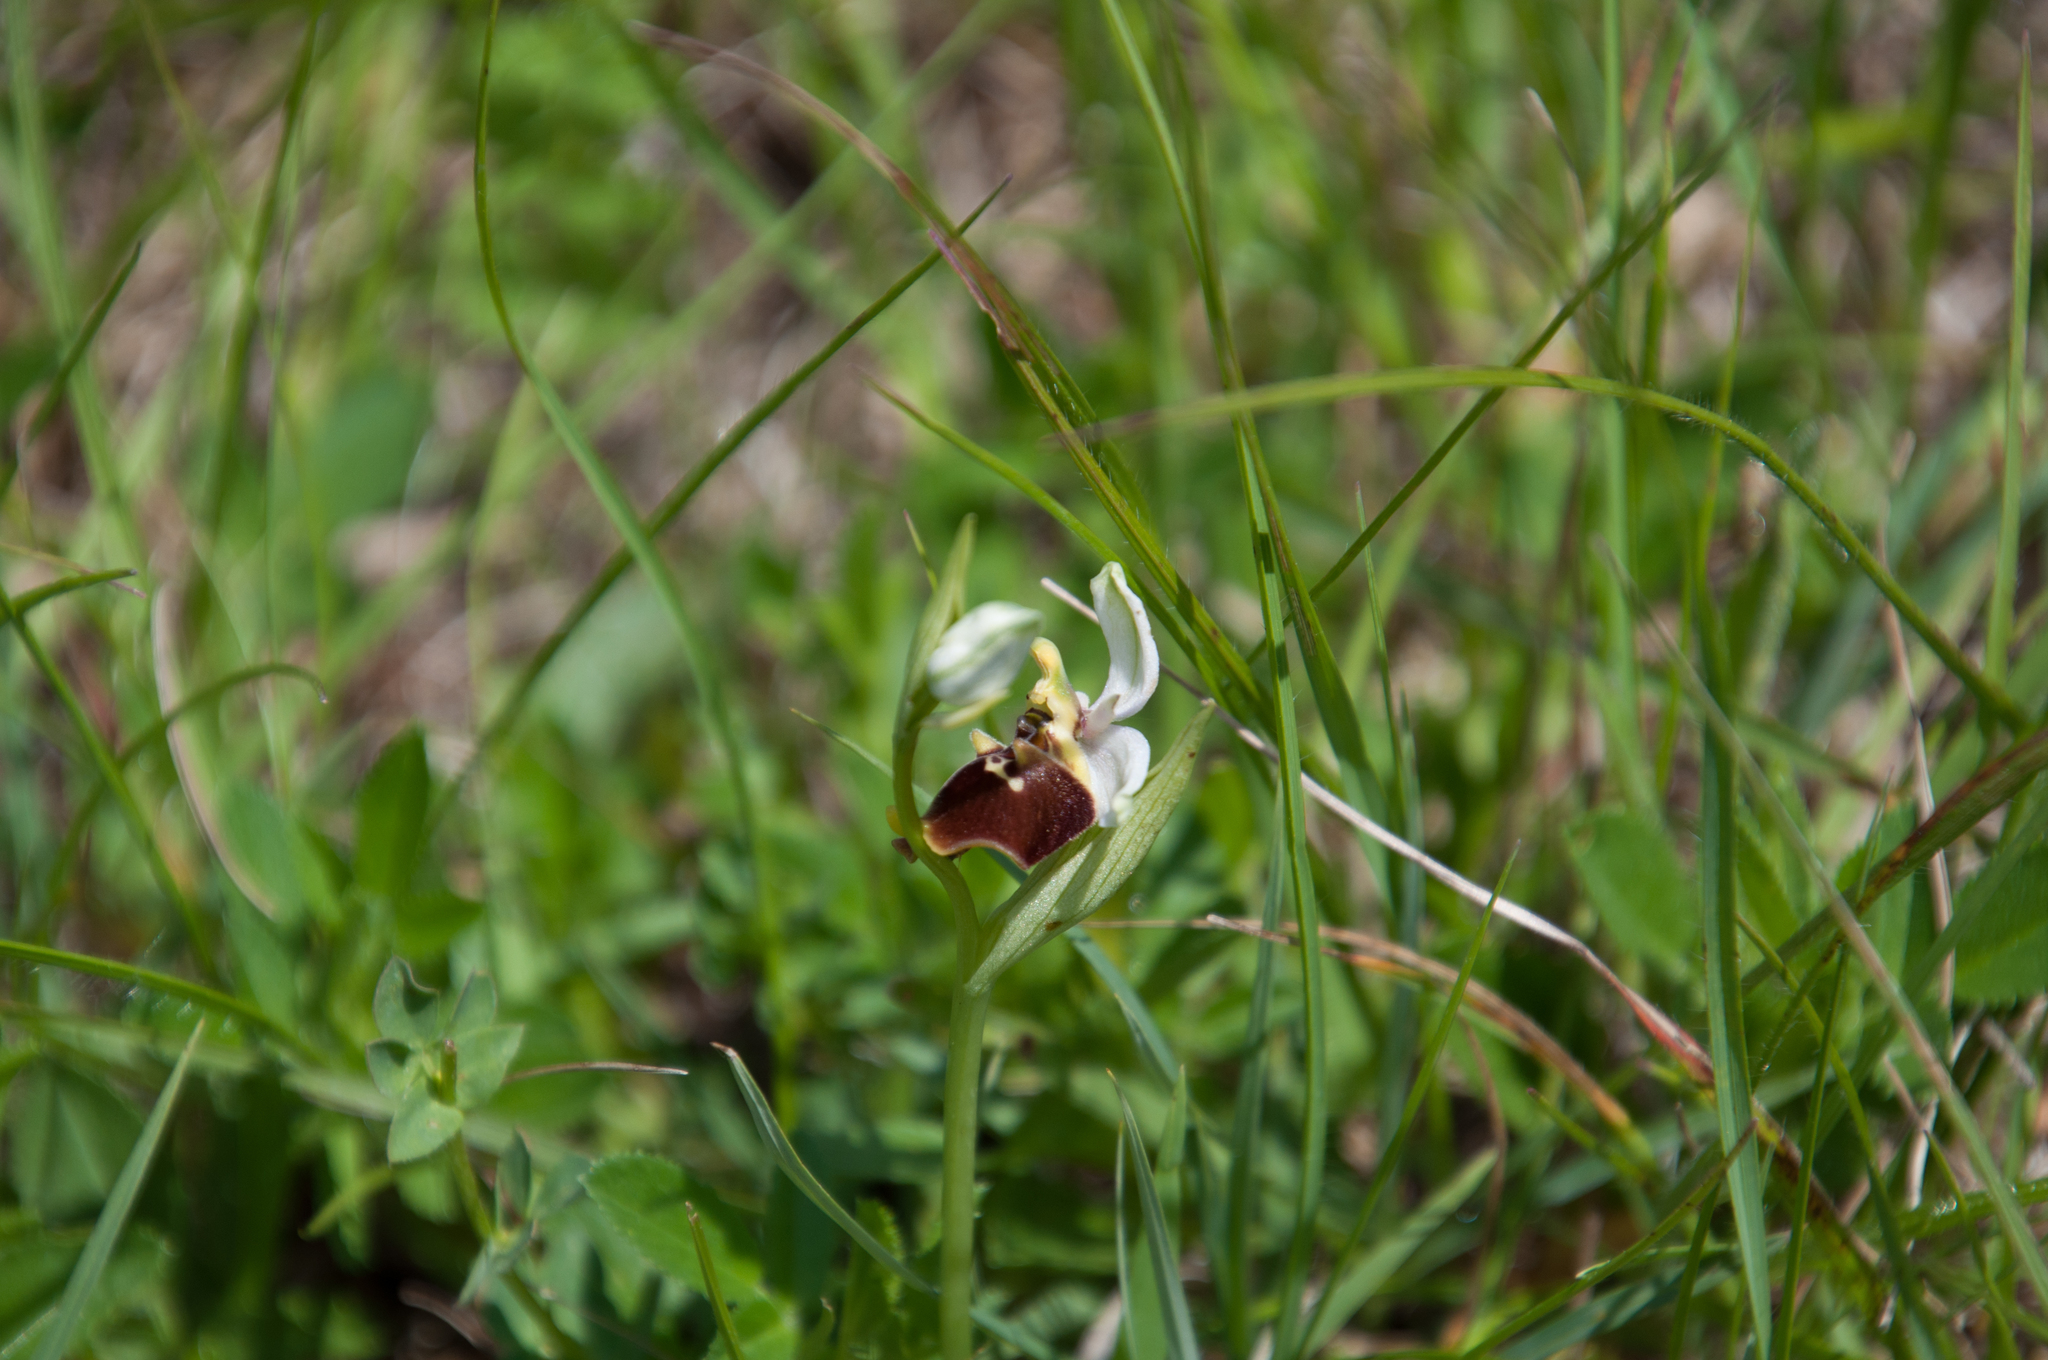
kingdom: Plantae
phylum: Tracheophyta
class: Liliopsida
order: Asparagales
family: Orchidaceae
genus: Ophrys
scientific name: Ophrys holosericea
